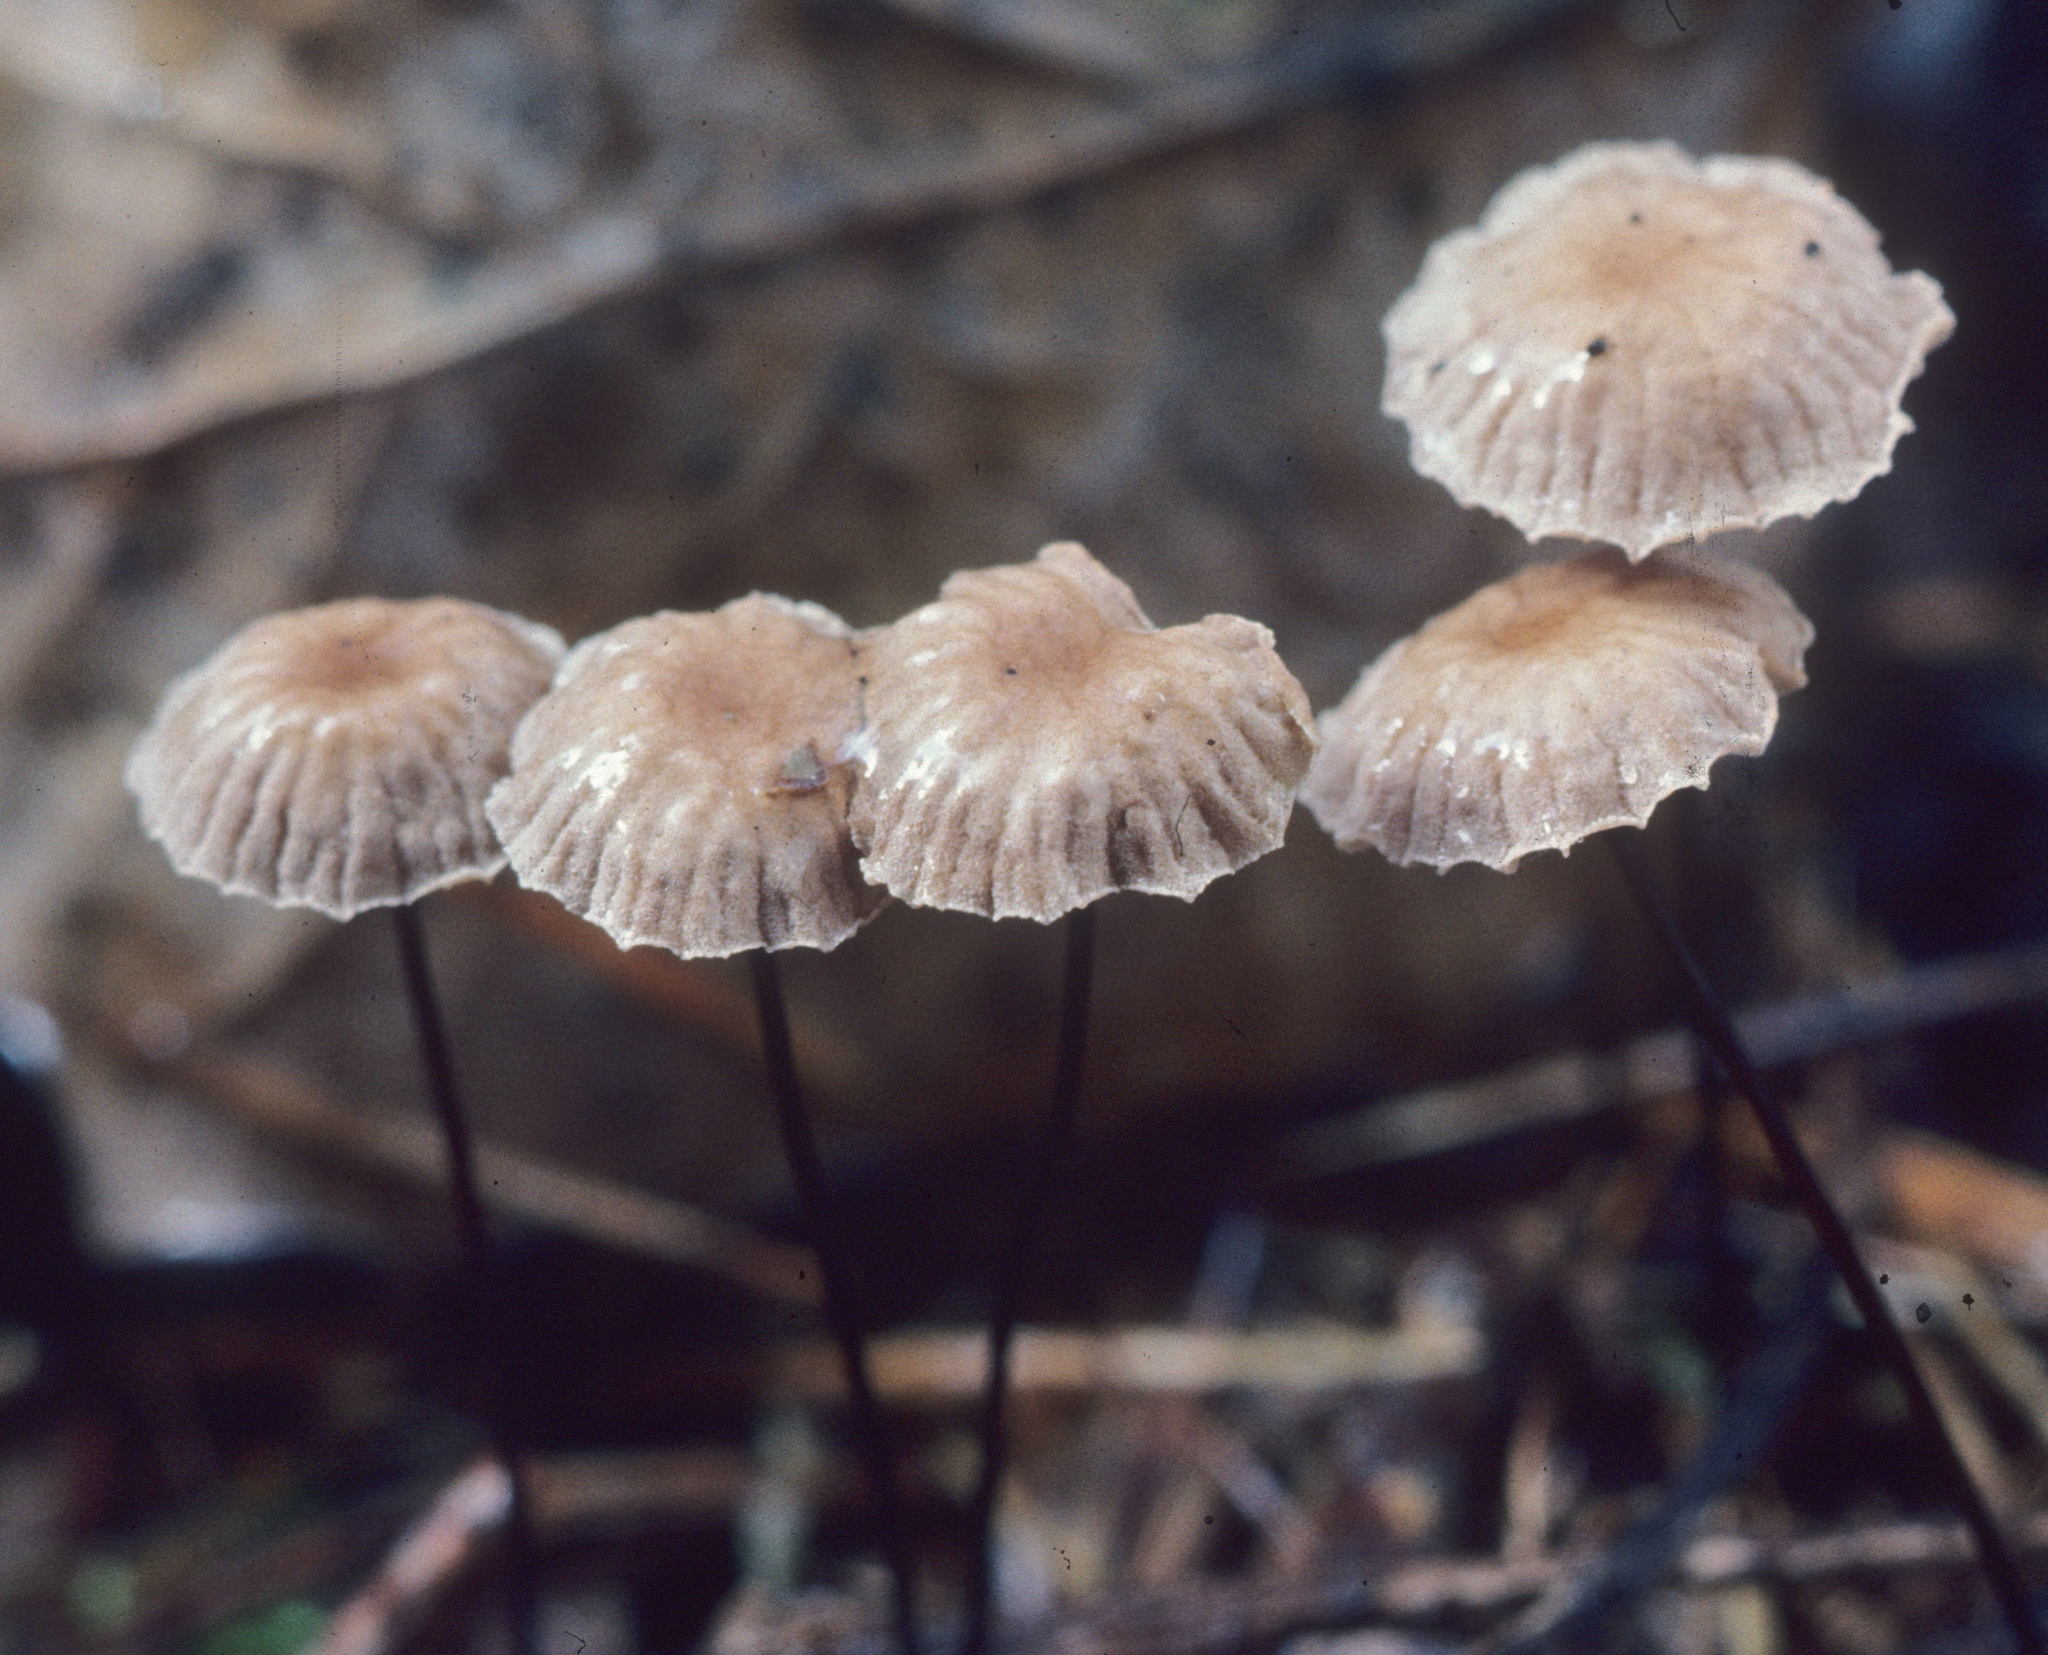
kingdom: Fungi
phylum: Basidiomycota
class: Agaricomycetes
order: Agaricales
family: Omphalotaceae
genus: Gymnopus
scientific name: Gymnopus androsaceus
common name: Horse-hair fungus
